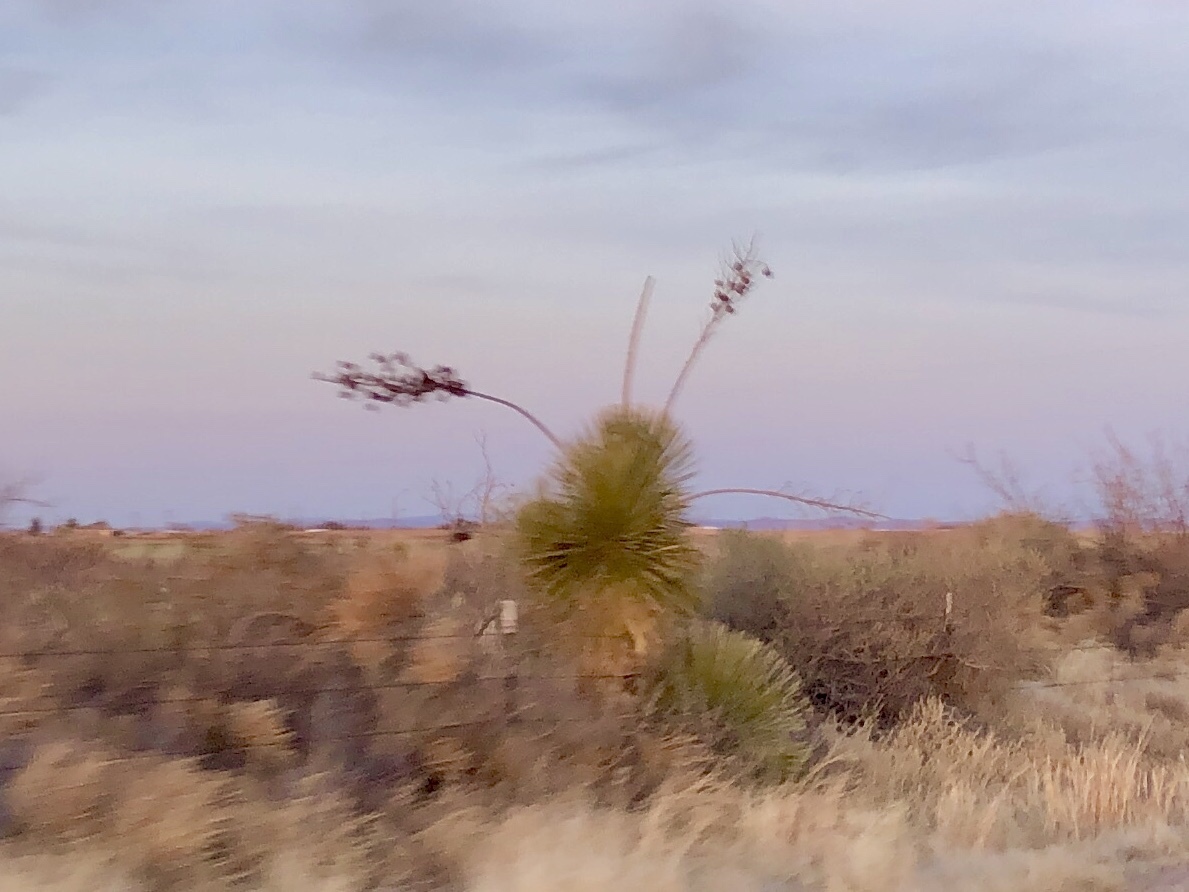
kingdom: Plantae
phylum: Tracheophyta
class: Liliopsida
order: Asparagales
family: Asparagaceae
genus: Yucca
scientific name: Yucca elata
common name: Palmella
